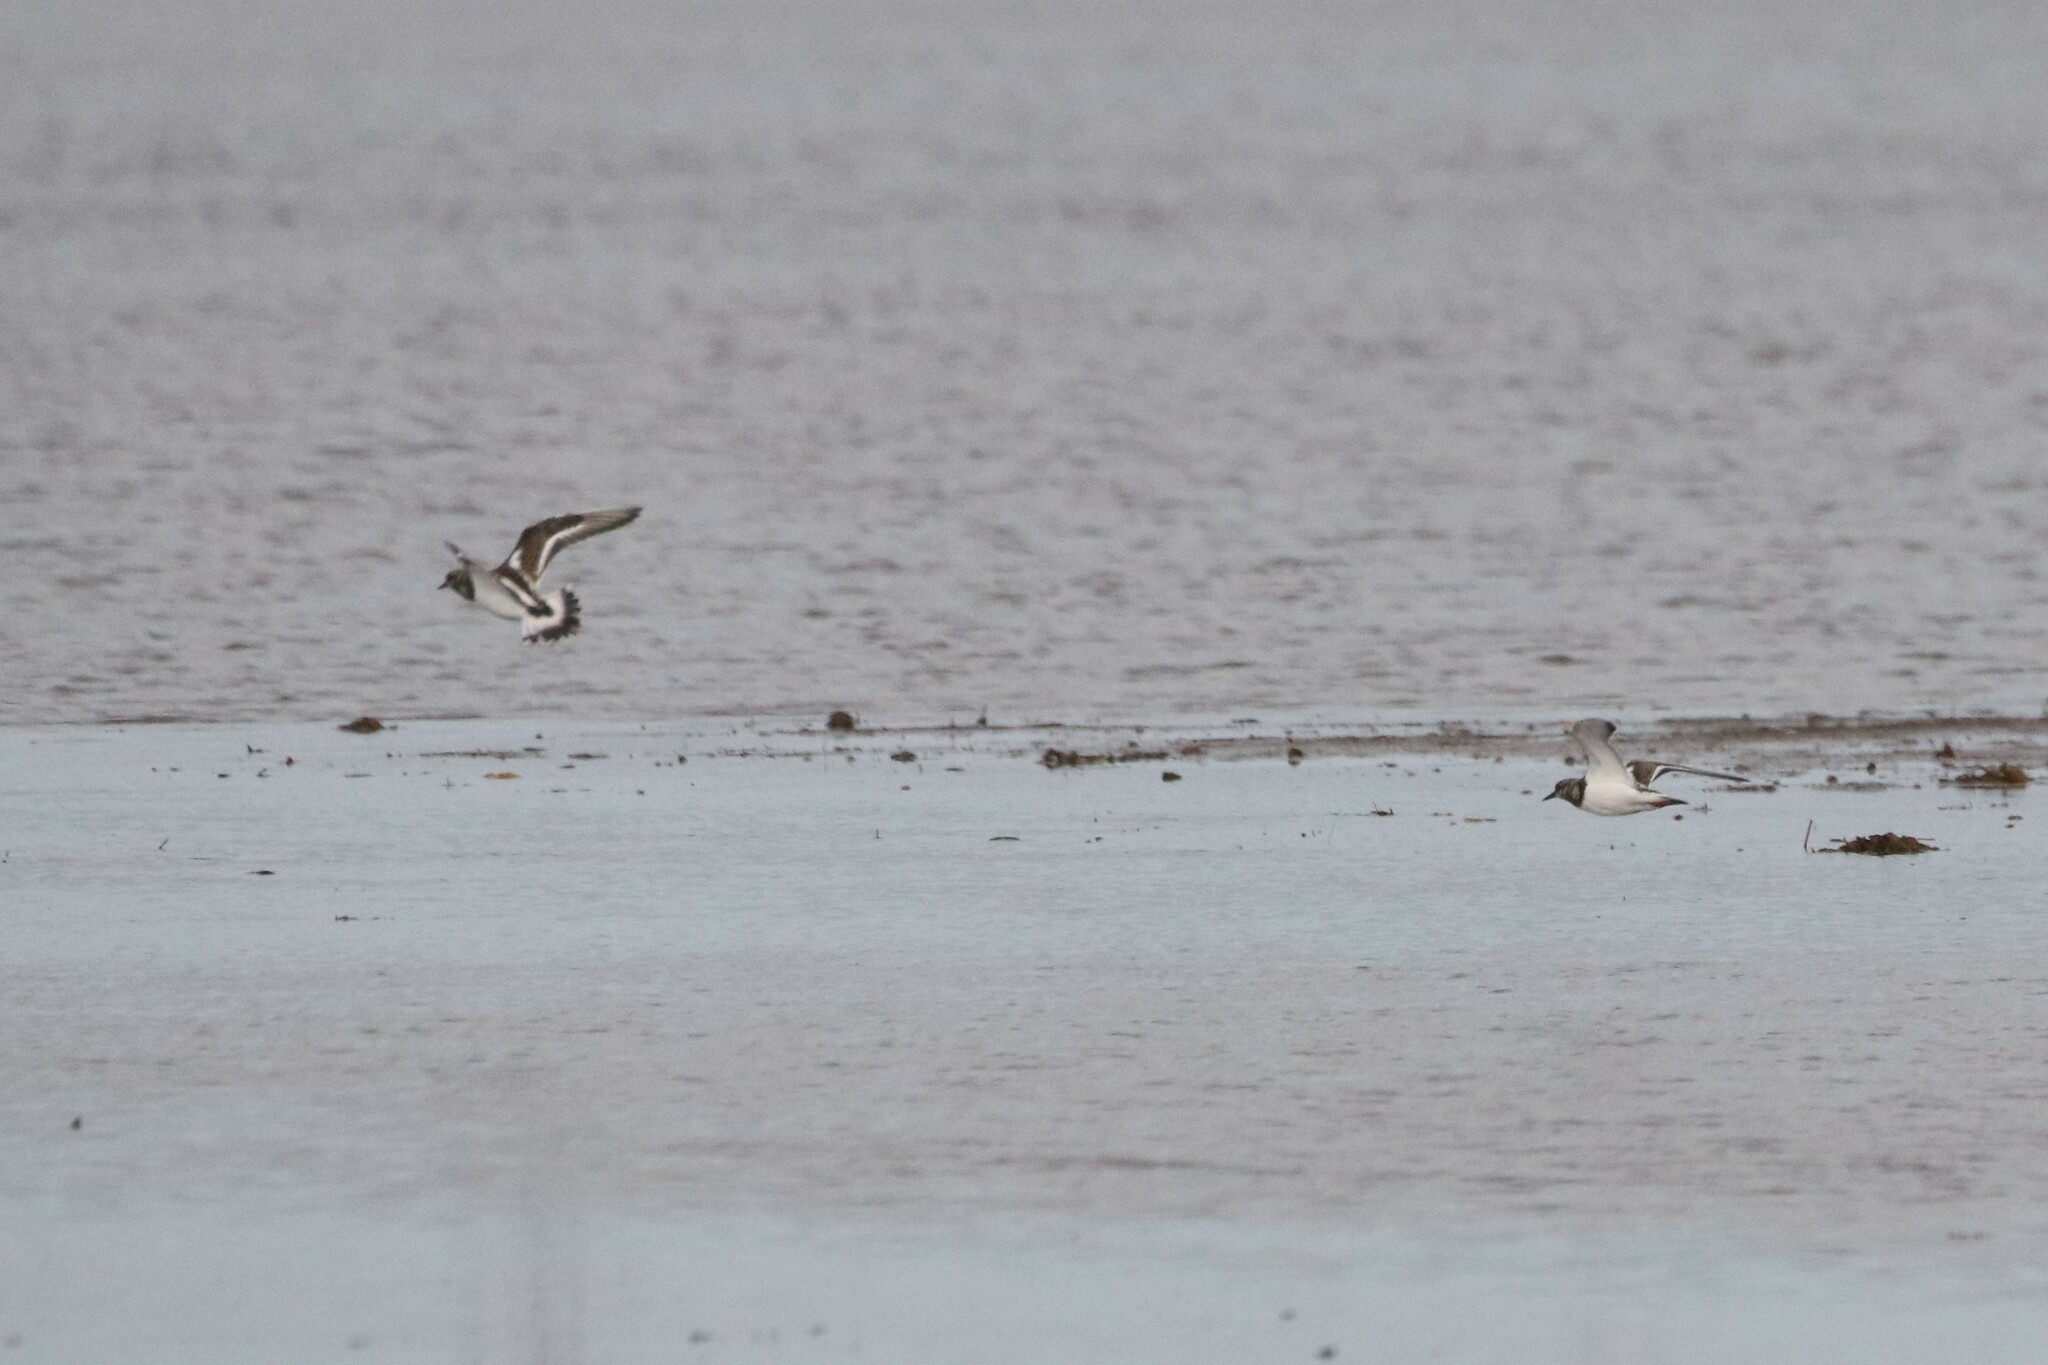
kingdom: Animalia
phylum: Chordata
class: Aves
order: Charadriiformes
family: Scolopacidae
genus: Arenaria
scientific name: Arenaria interpres
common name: Ruddy turnstone
